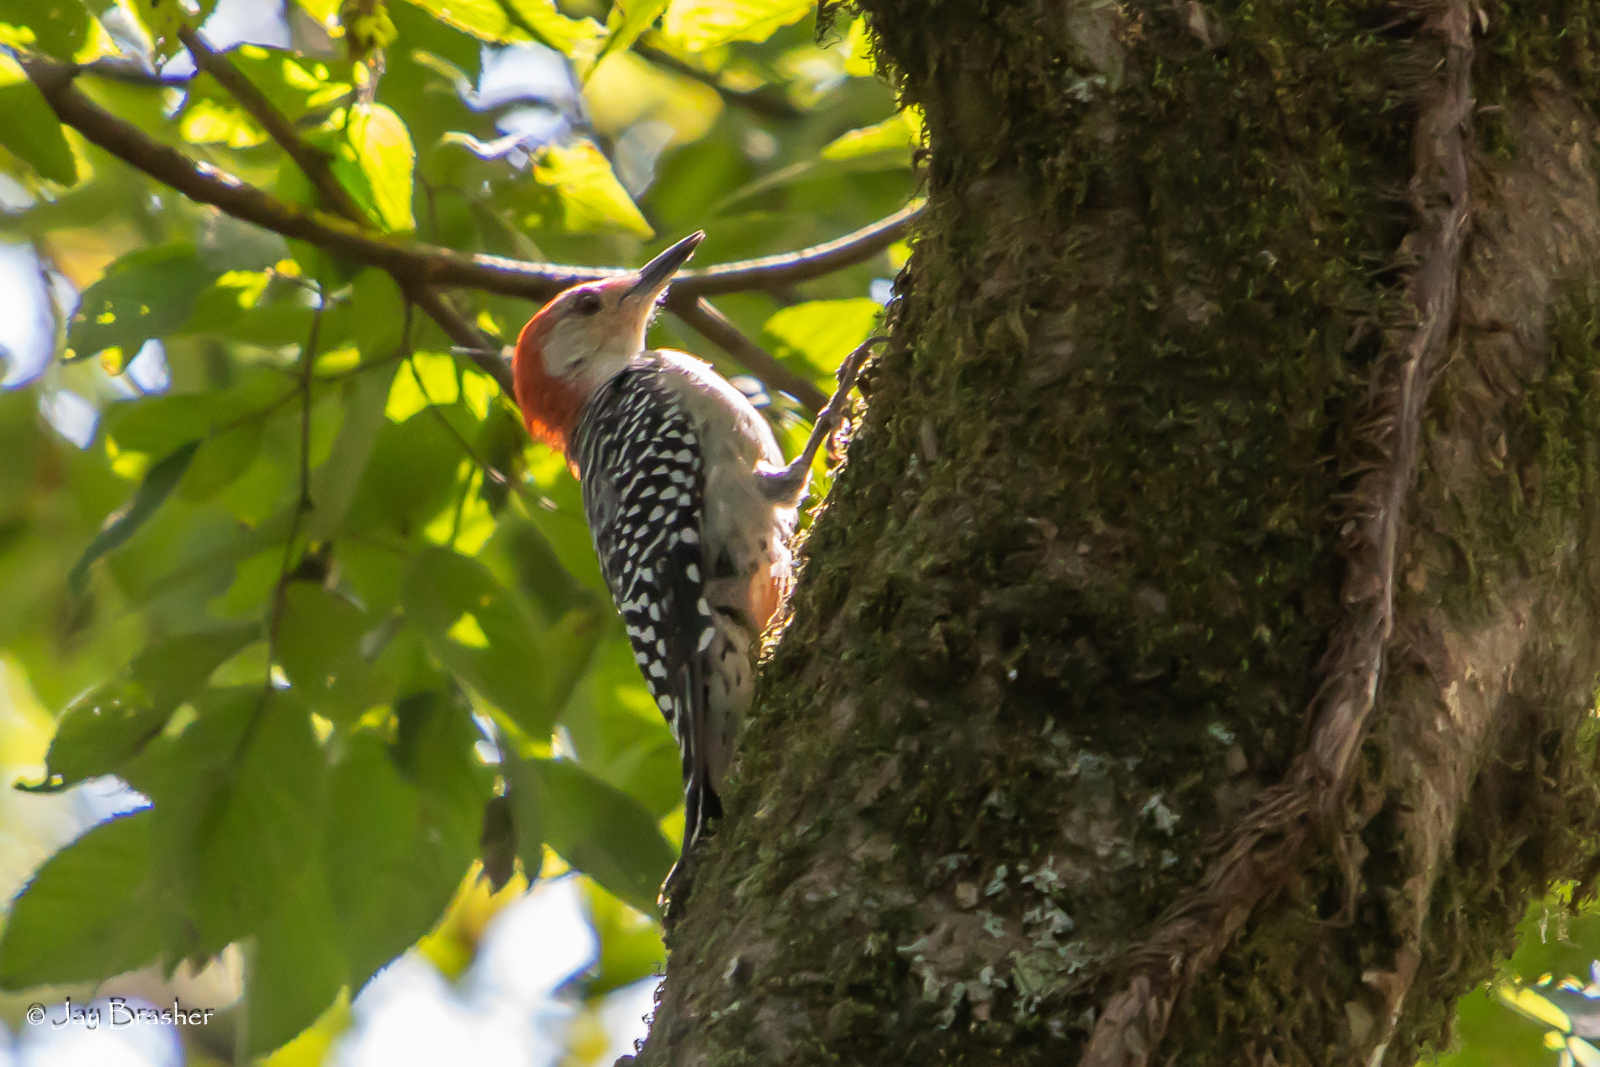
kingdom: Animalia
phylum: Chordata
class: Aves
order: Piciformes
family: Picidae
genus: Melanerpes
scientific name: Melanerpes carolinus
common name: Red-bellied woodpecker
